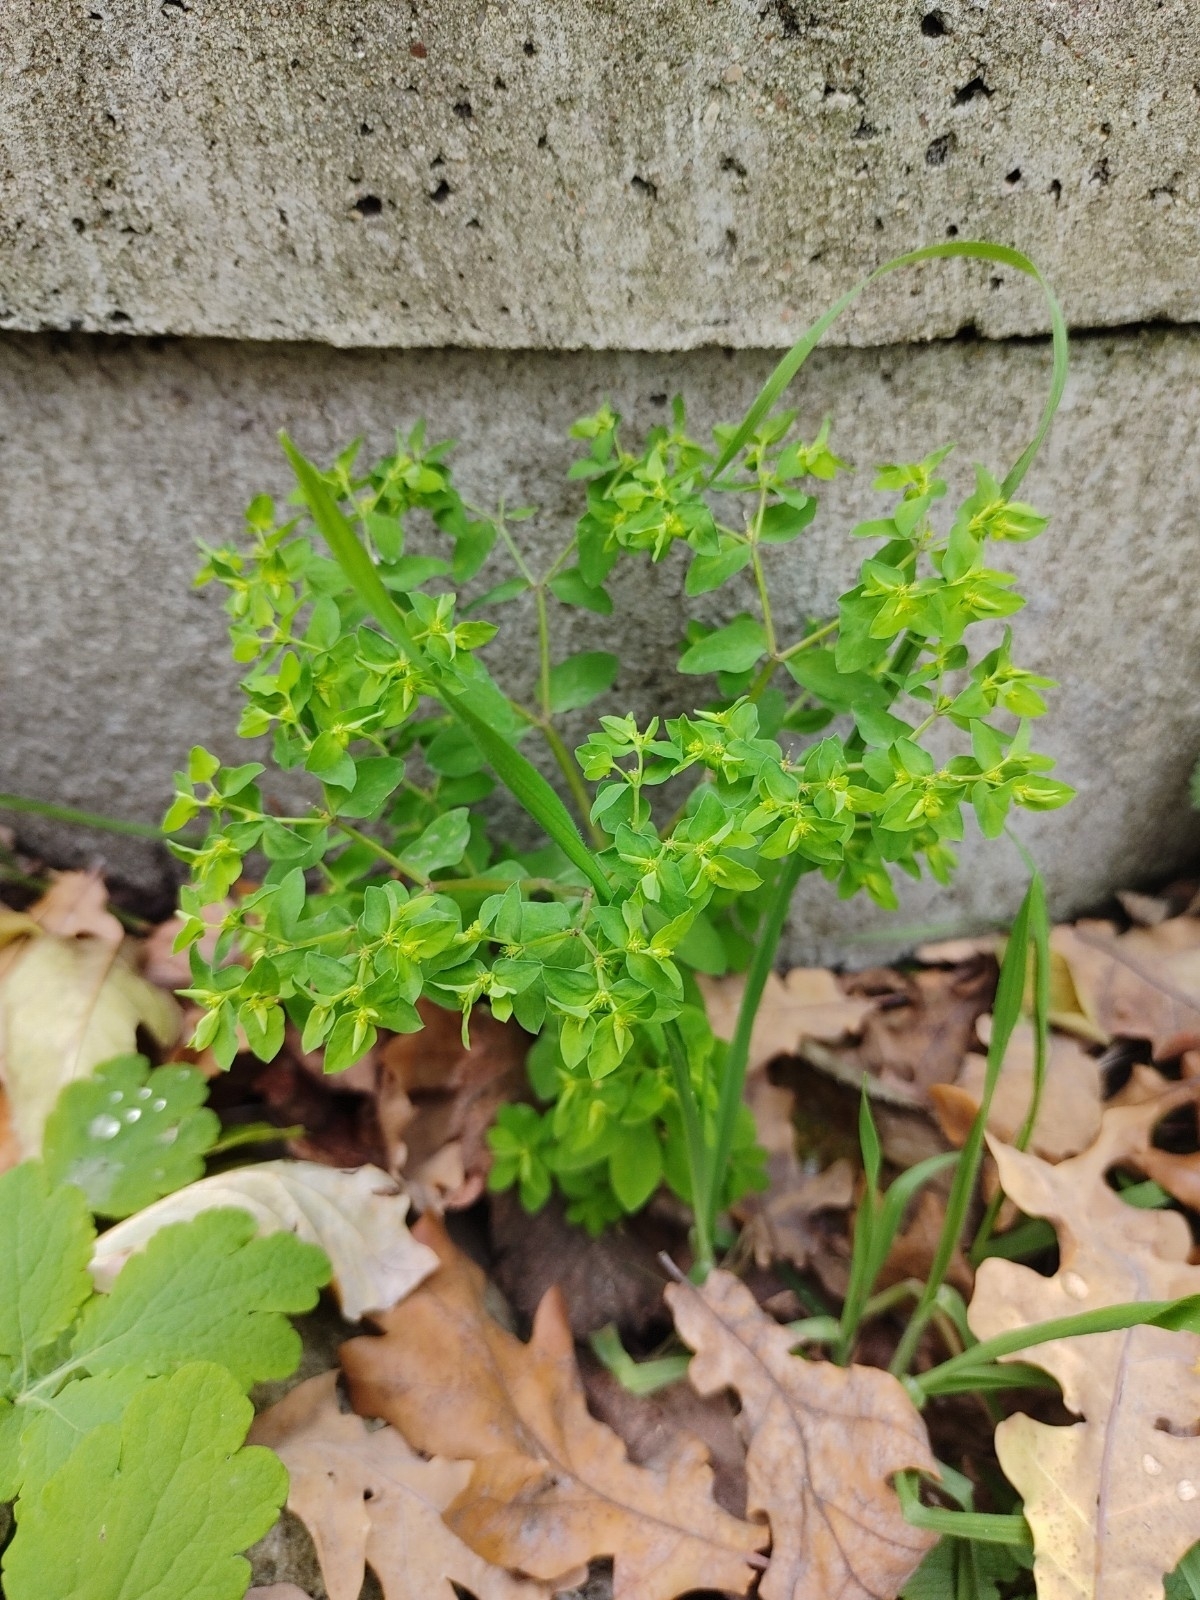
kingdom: Plantae
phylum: Tracheophyta
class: Magnoliopsida
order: Malpighiales
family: Euphorbiaceae
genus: Euphorbia
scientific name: Euphorbia peplus
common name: Petty spurge
